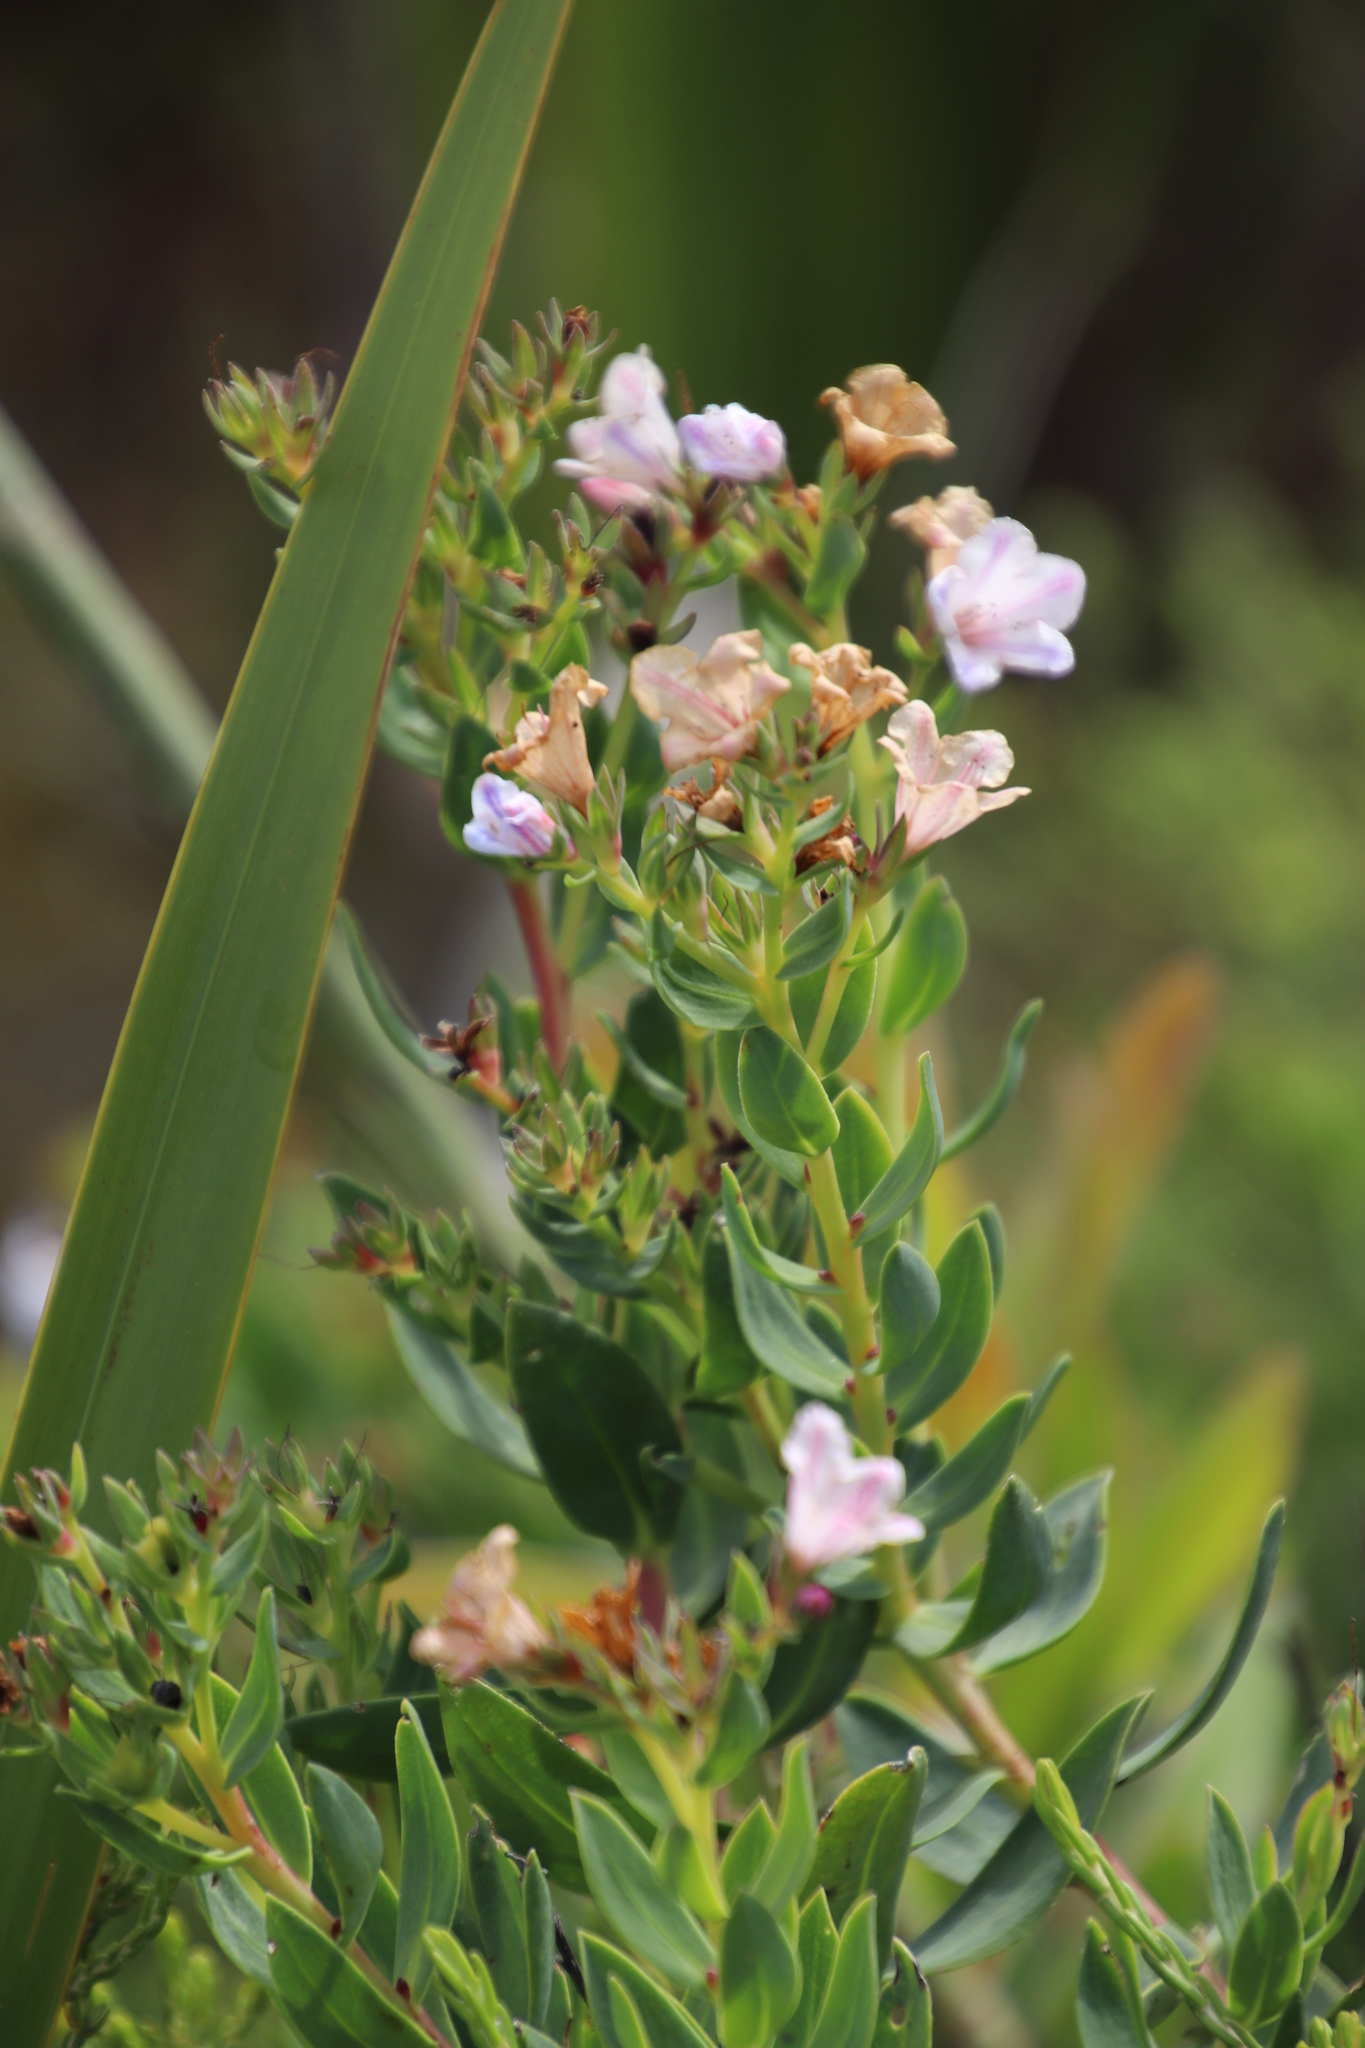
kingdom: Plantae
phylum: Tracheophyta
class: Magnoliopsida
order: Boraginales
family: Boraginaceae
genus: Lobostemon
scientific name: Lobostemon glaucophyllus
